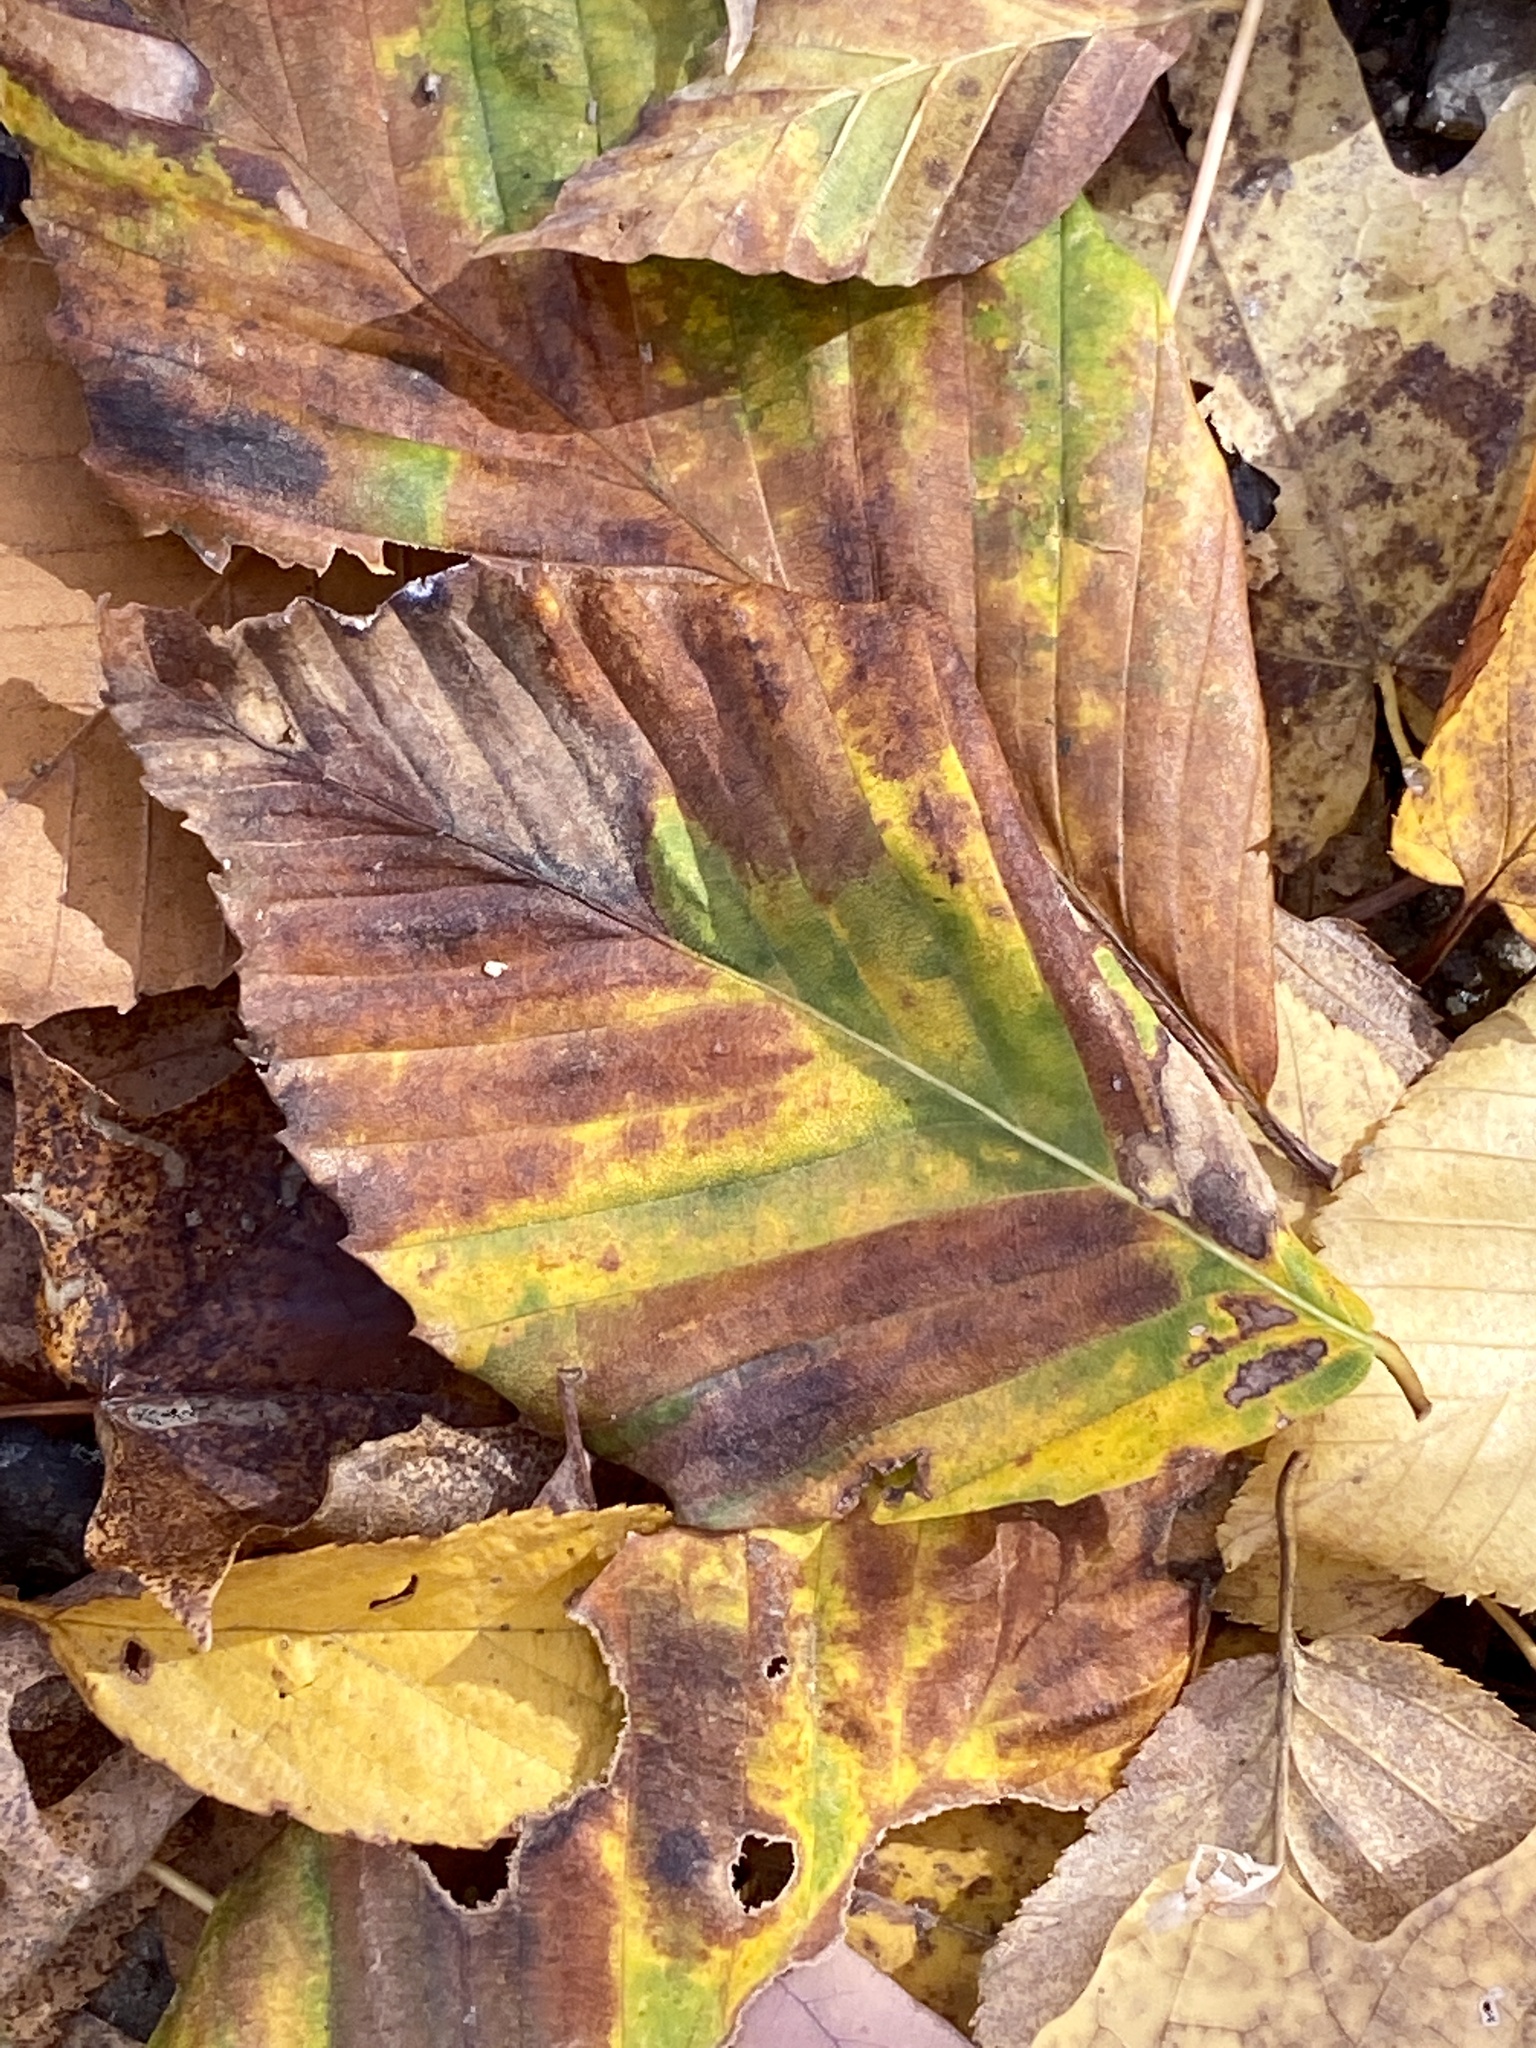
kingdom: Animalia
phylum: Nematoda
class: Chromadorea
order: Rhabditida
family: Anguinidae
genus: Litylenchus
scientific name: Litylenchus crenatae
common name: Beech leaf disease
